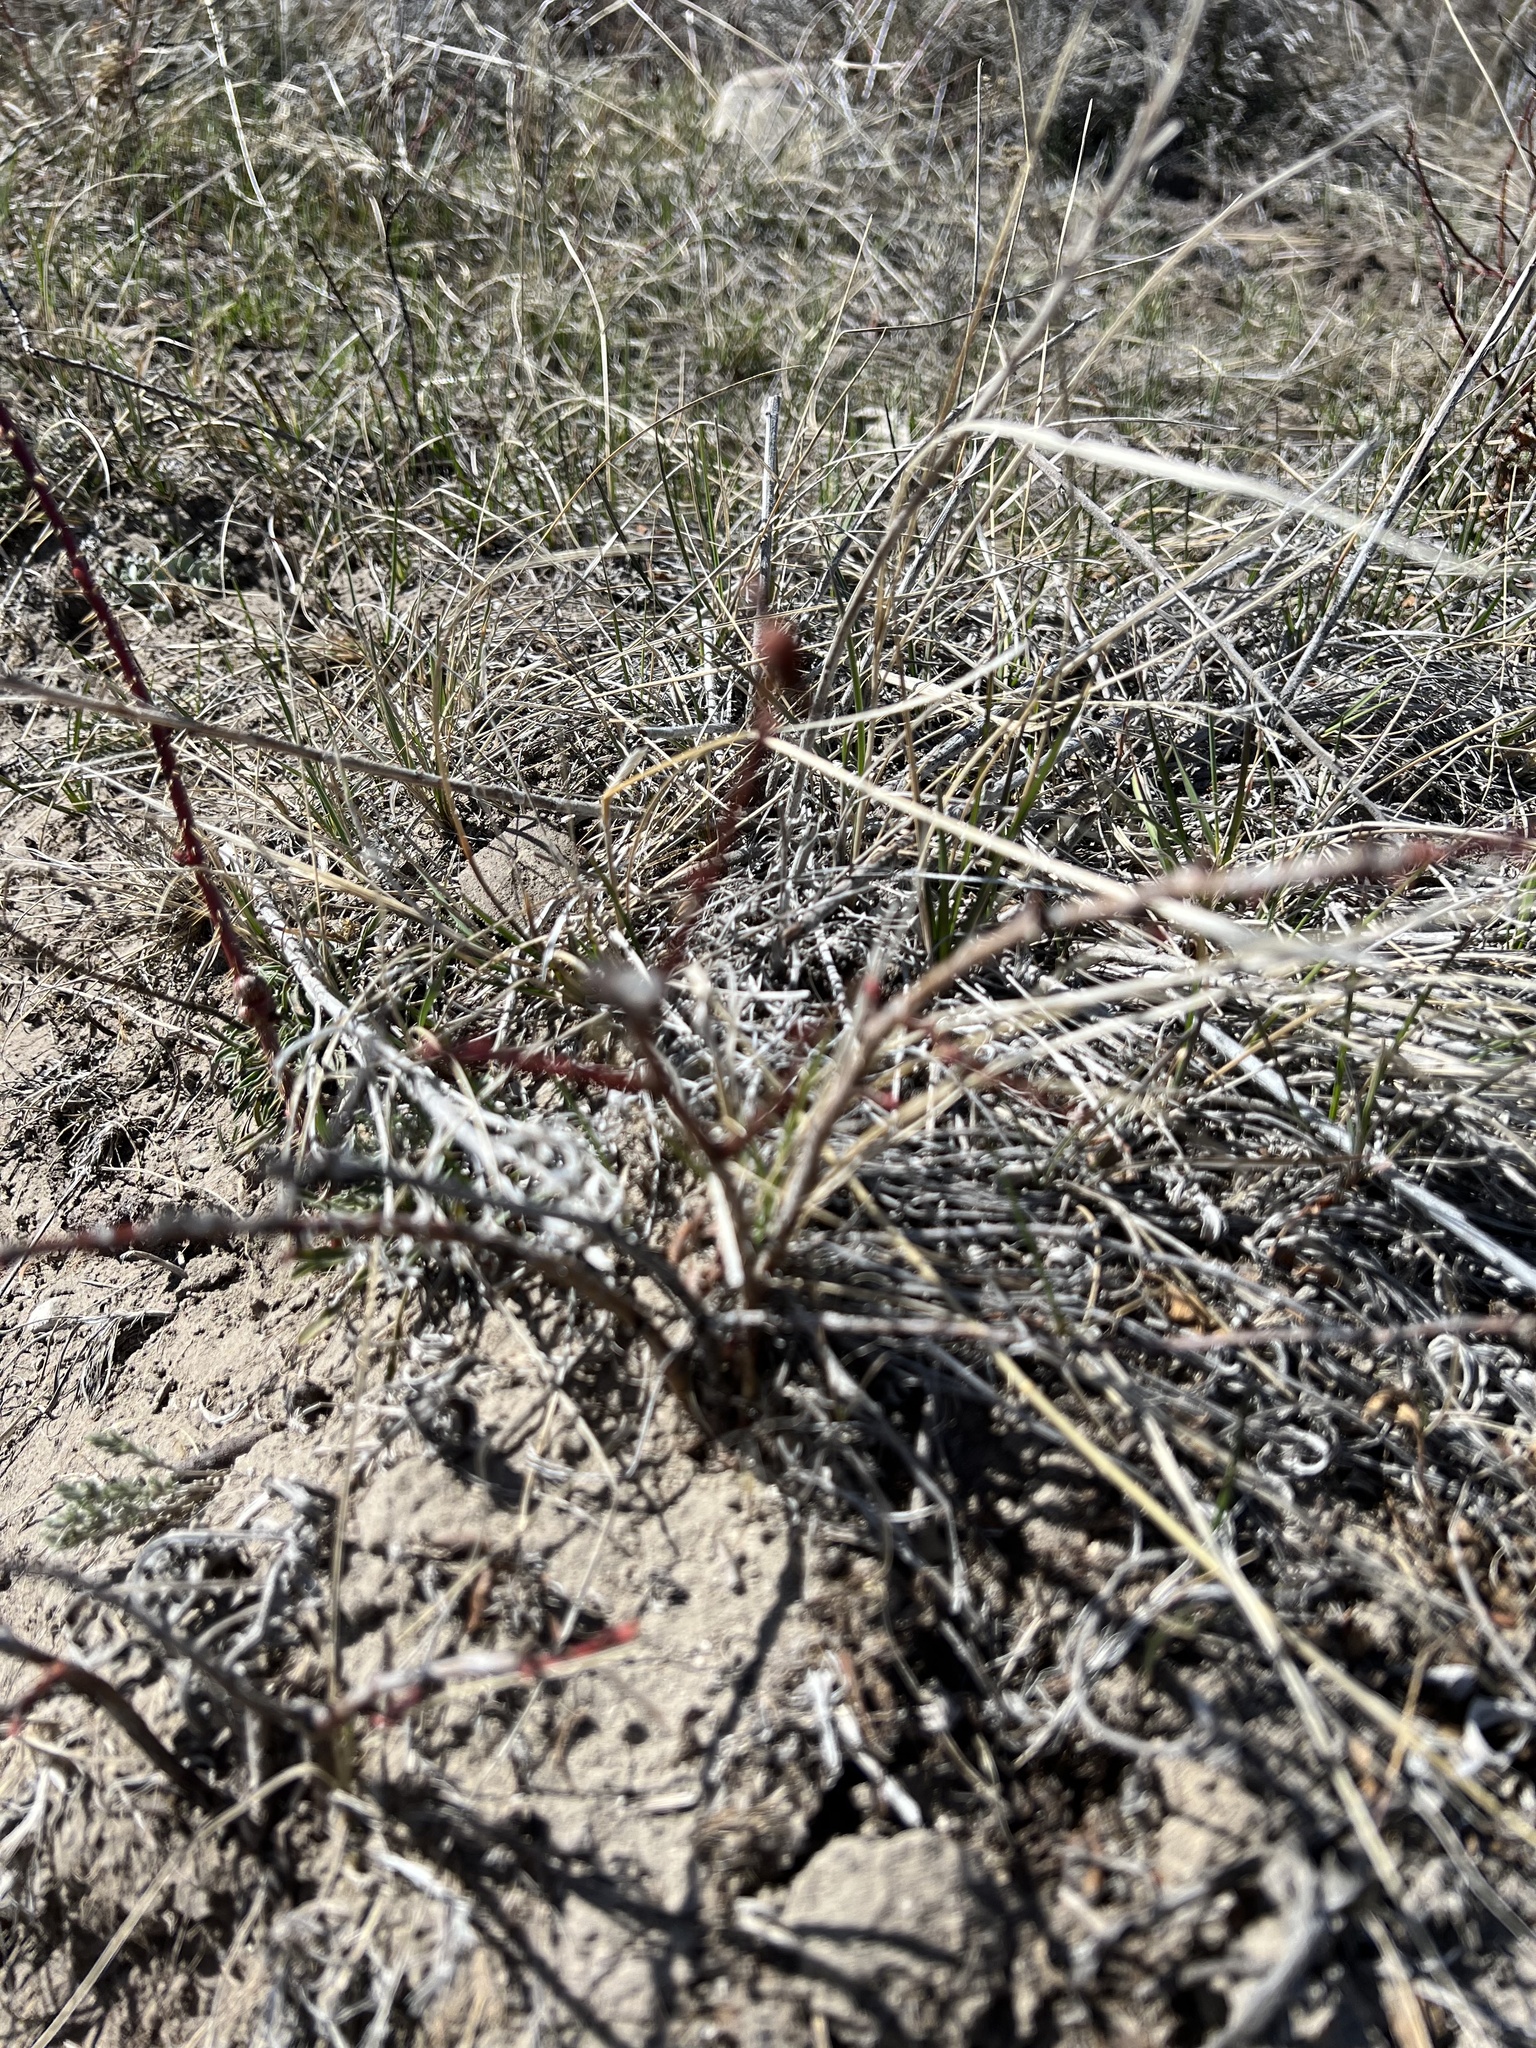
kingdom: Plantae
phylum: Tracheophyta
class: Magnoliopsida
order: Rosales
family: Rosaceae
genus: Rosa
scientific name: Rosa
